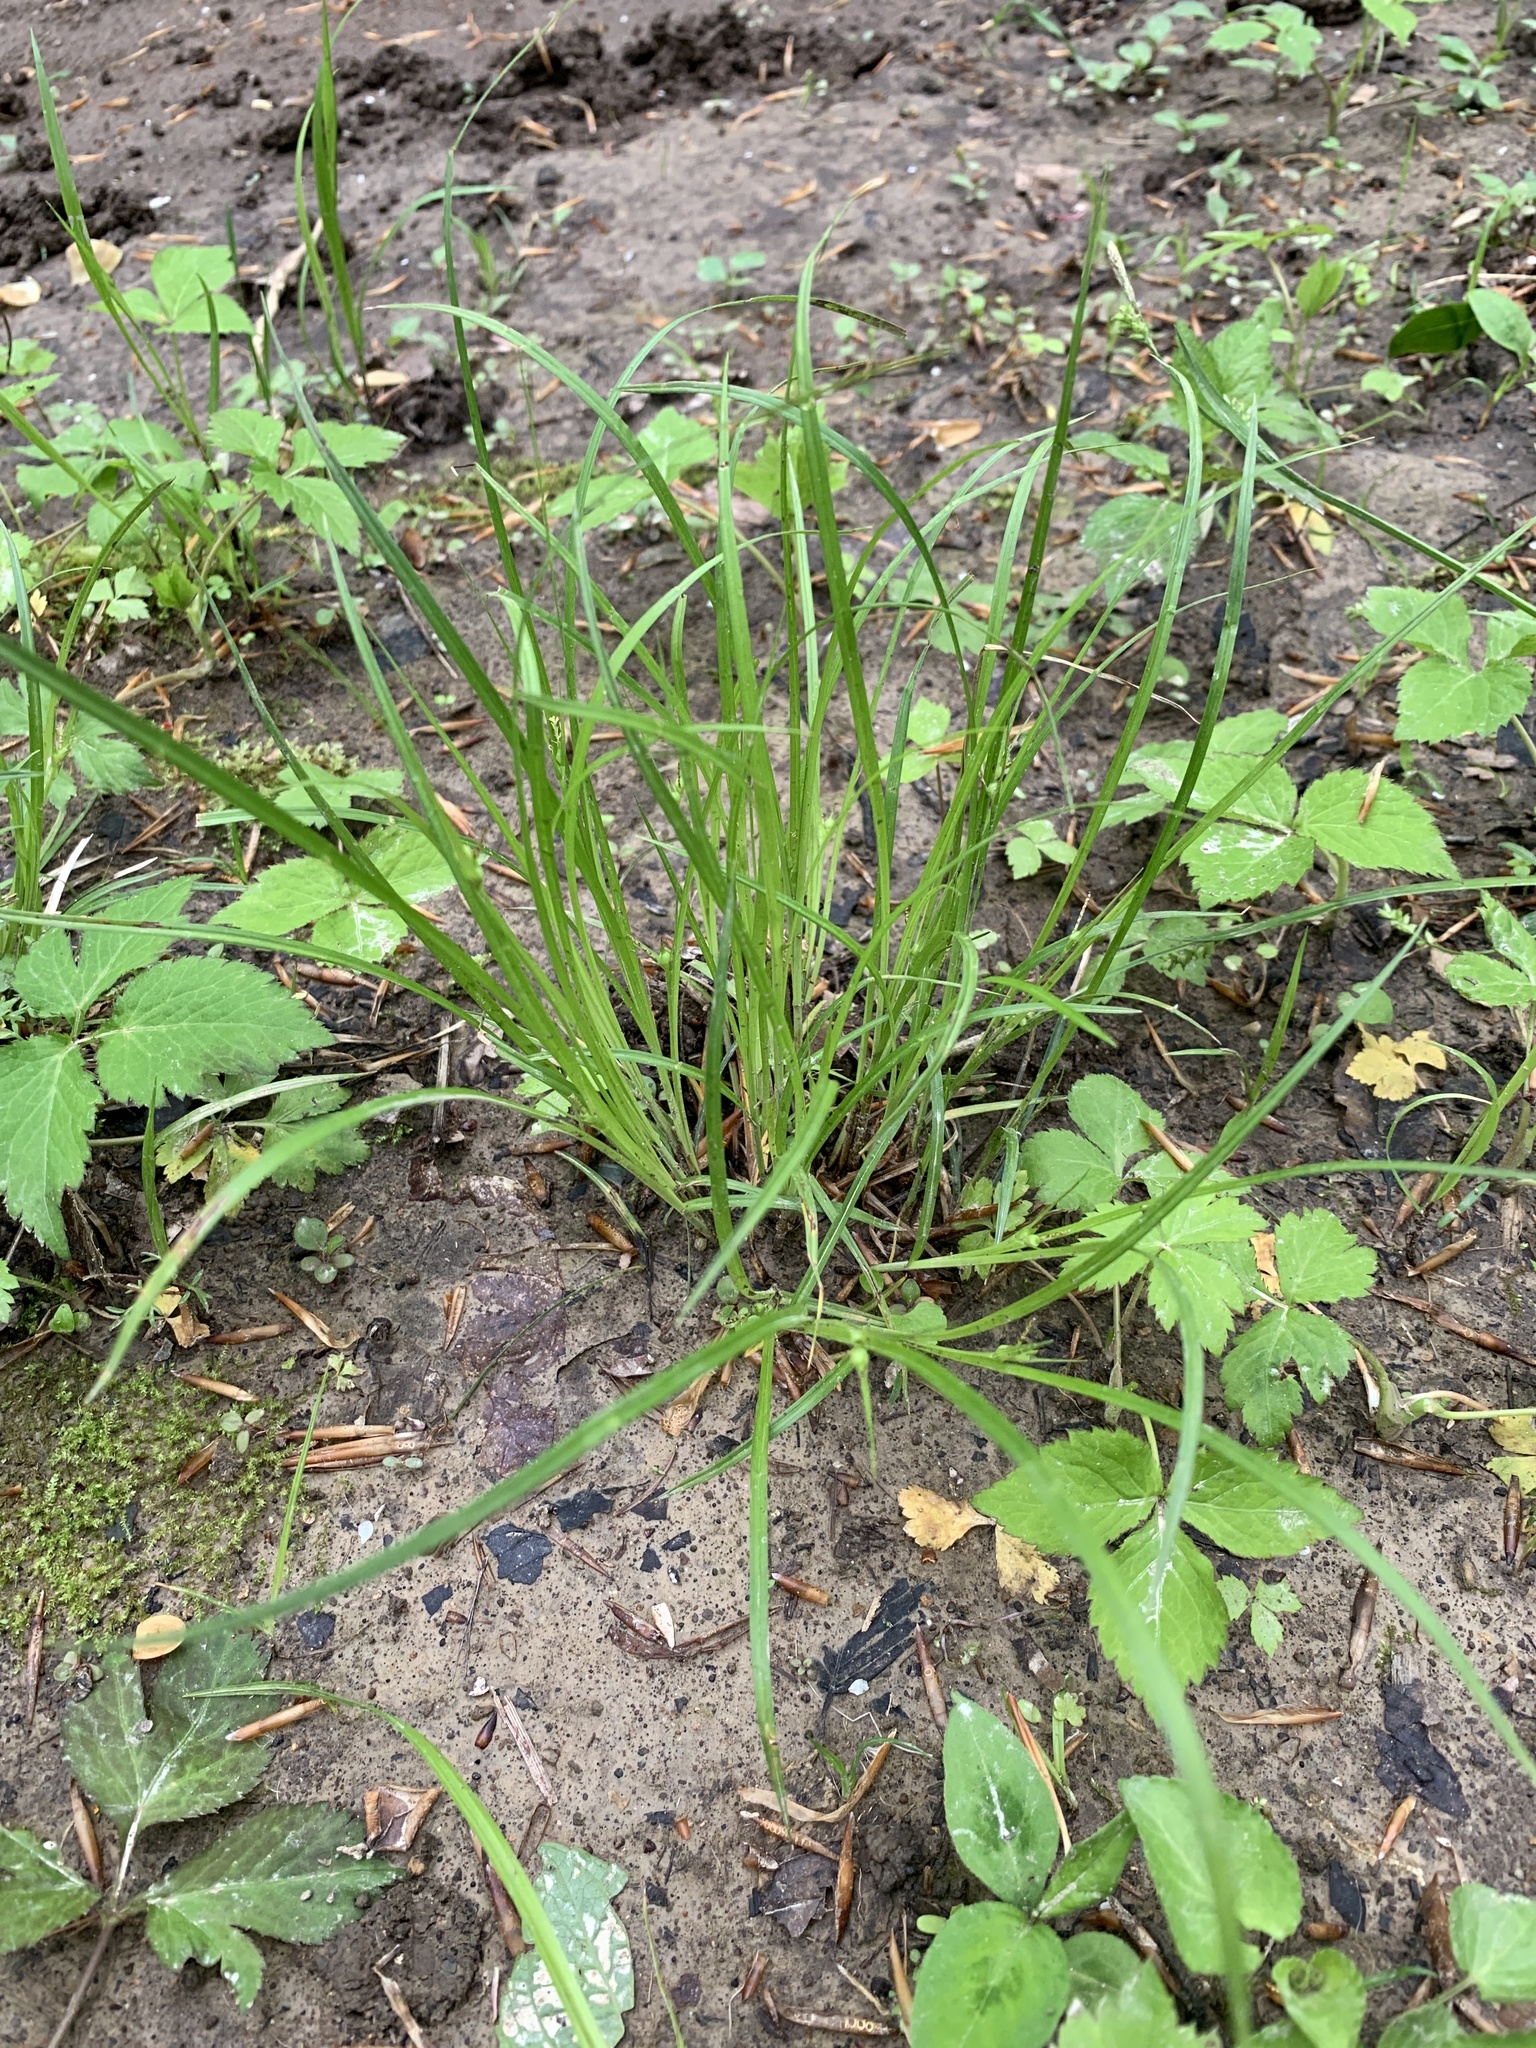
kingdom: Plantae
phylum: Tracheophyta
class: Liliopsida
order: Poales
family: Cyperaceae
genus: Carex
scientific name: Carex jamesii
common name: Grass sedge
